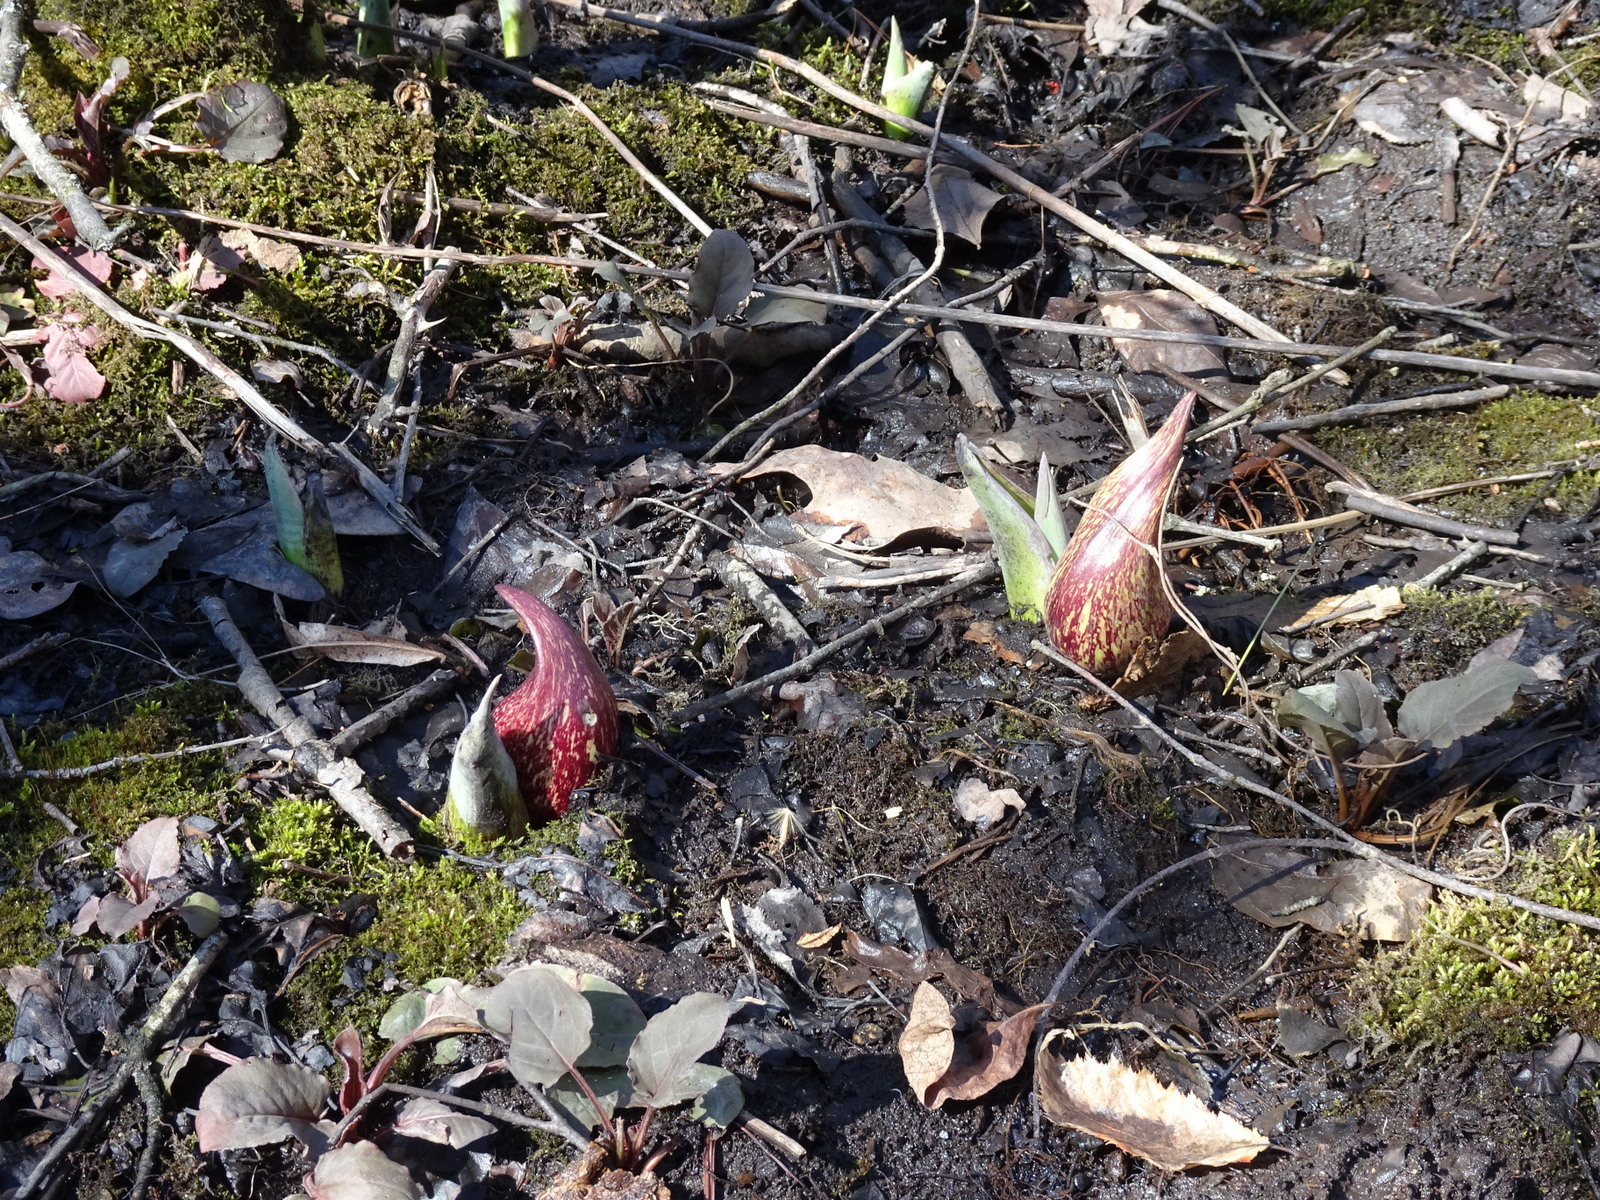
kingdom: Plantae
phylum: Tracheophyta
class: Liliopsida
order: Alismatales
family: Araceae
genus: Symplocarpus
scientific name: Symplocarpus foetidus
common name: Eastern skunk cabbage
